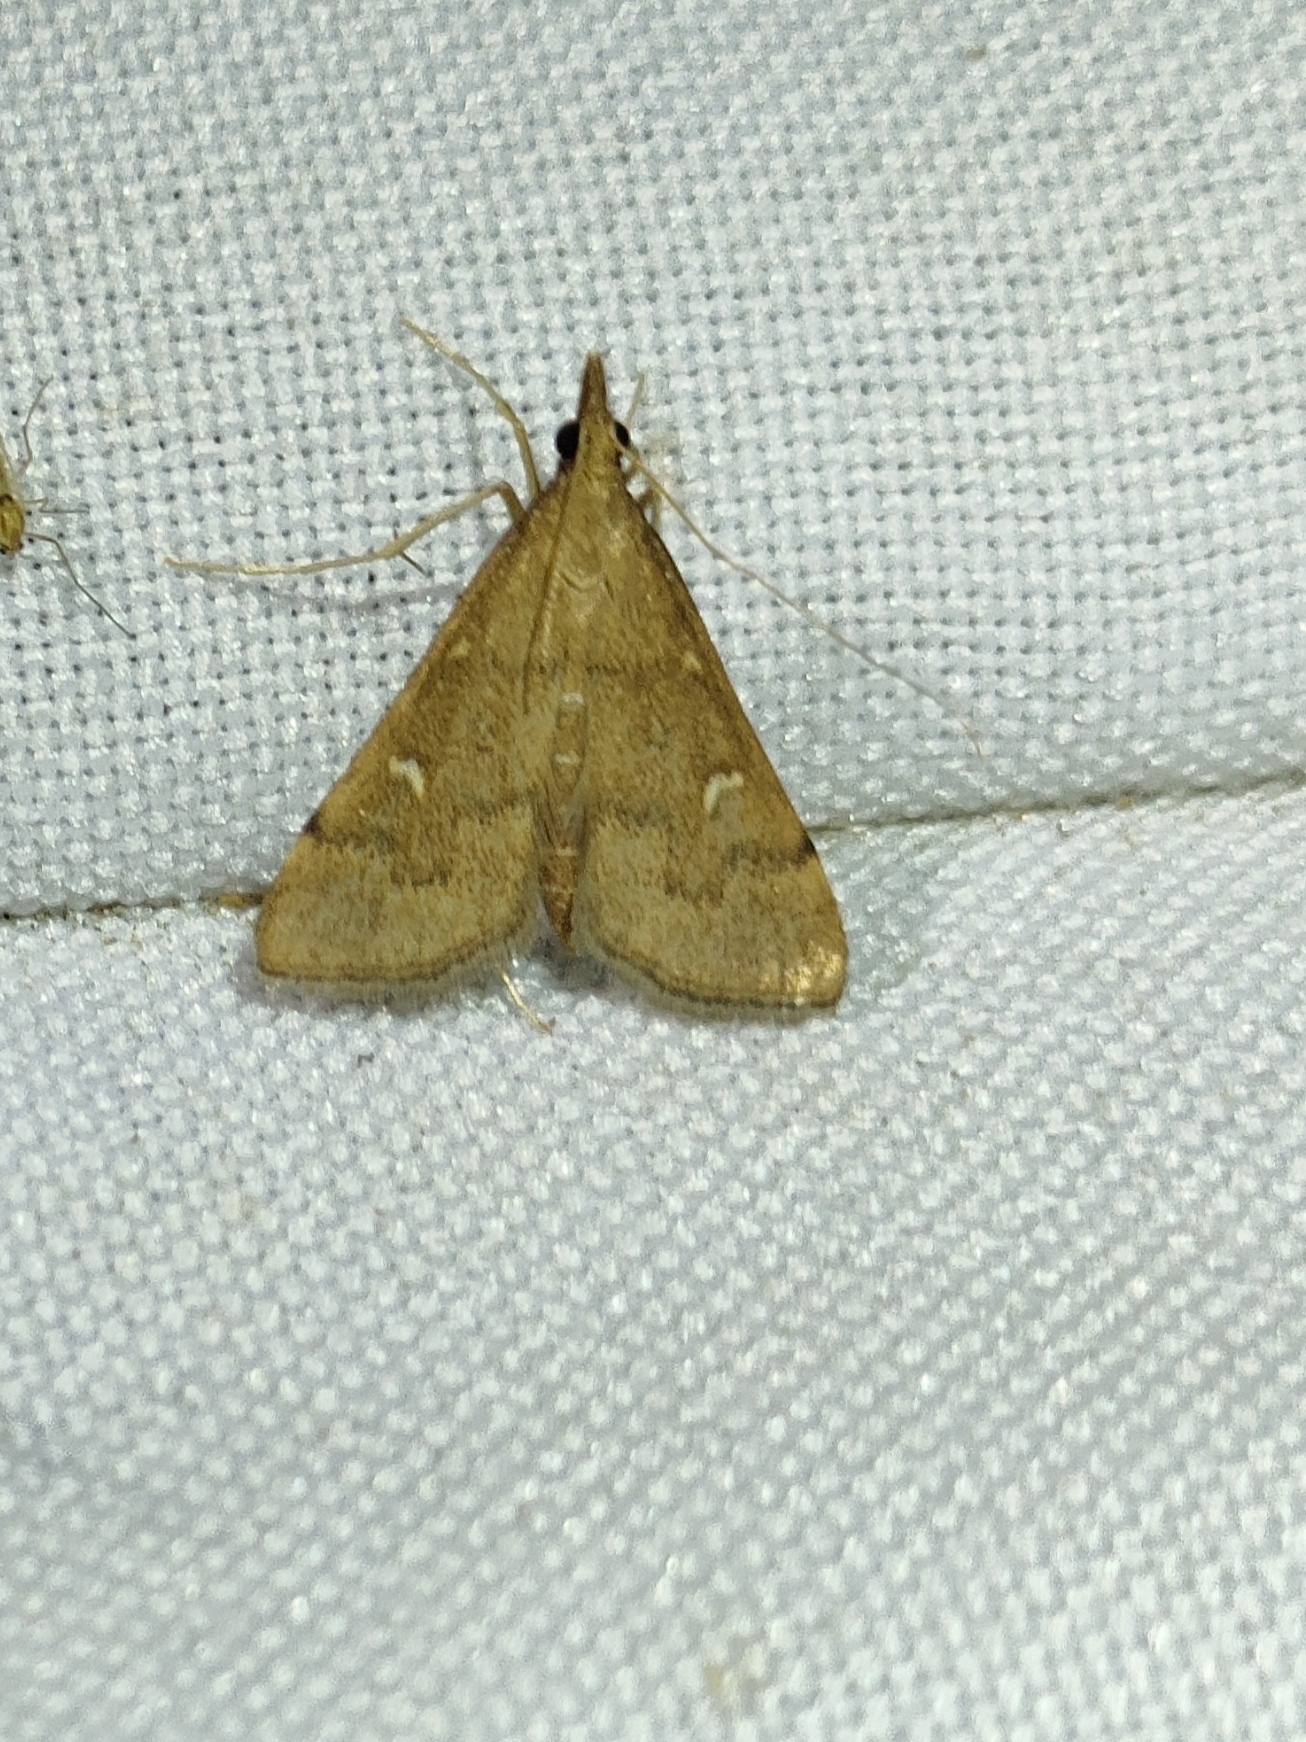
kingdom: Animalia
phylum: Arthropoda
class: Insecta
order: Lepidoptera
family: Crambidae
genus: Stenia
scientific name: Stenia Dolicharthria punctalis
